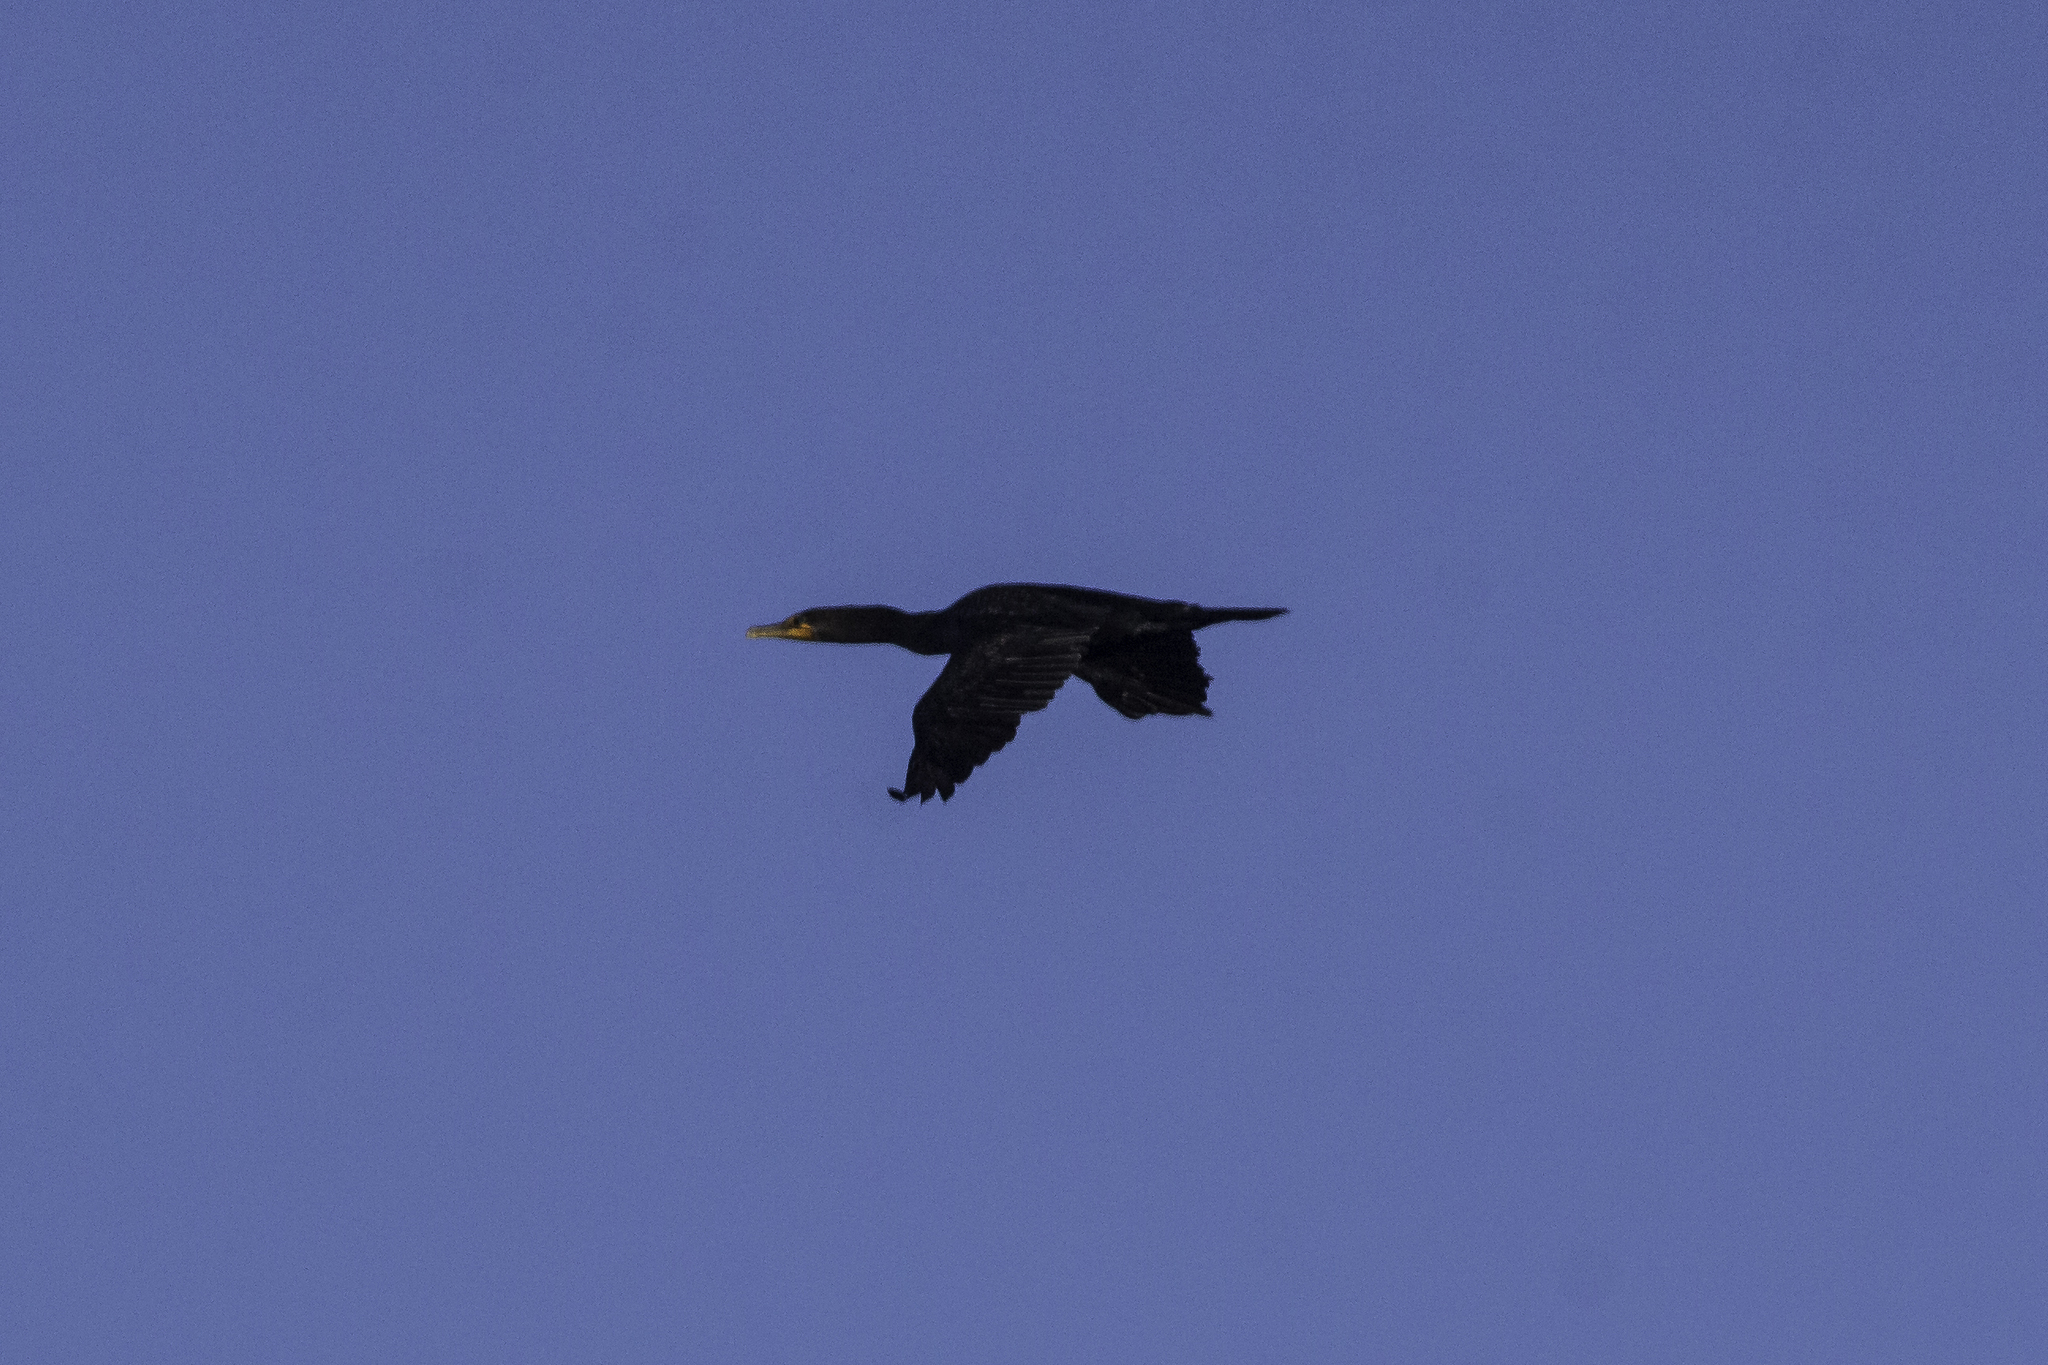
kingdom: Animalia
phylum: Chordata
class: Aves
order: Suliformes
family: Phalacrocoracidae
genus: Phalacrocorax
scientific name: Phalacrocorax auritus
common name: Double-crested cormorant
